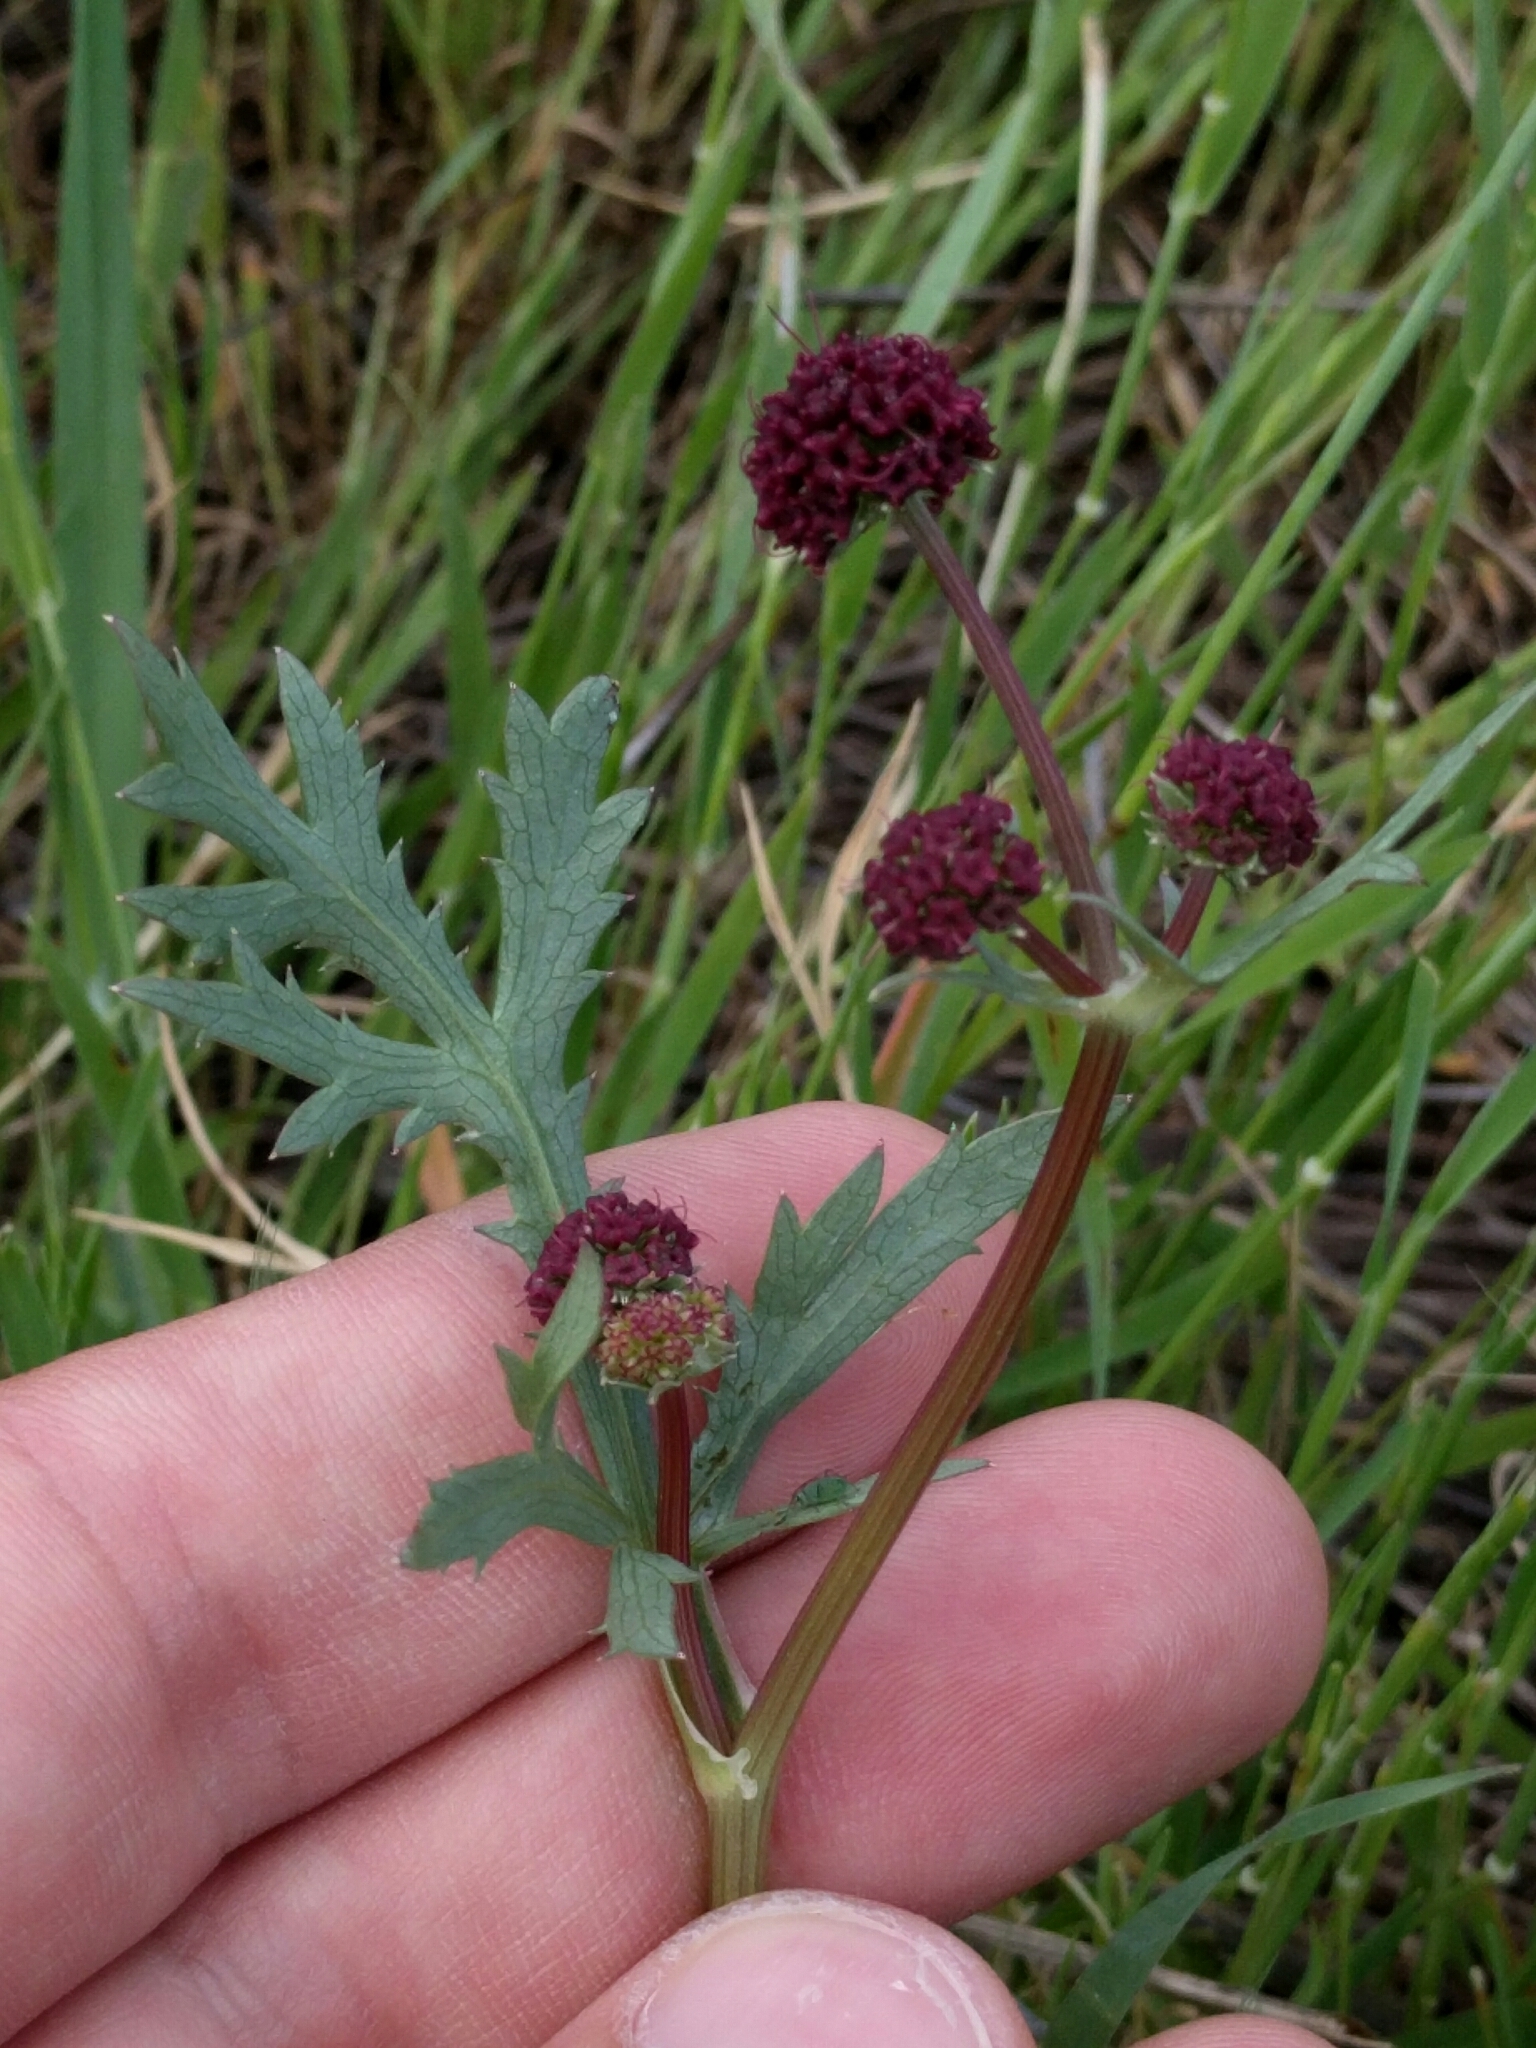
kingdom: Plantae
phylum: Tracheophyta
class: Magnoliopsida
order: Apiales
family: Apiaceae
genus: Sanicula
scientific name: Sanicula bipinnatifida
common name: Shoe-buttons
